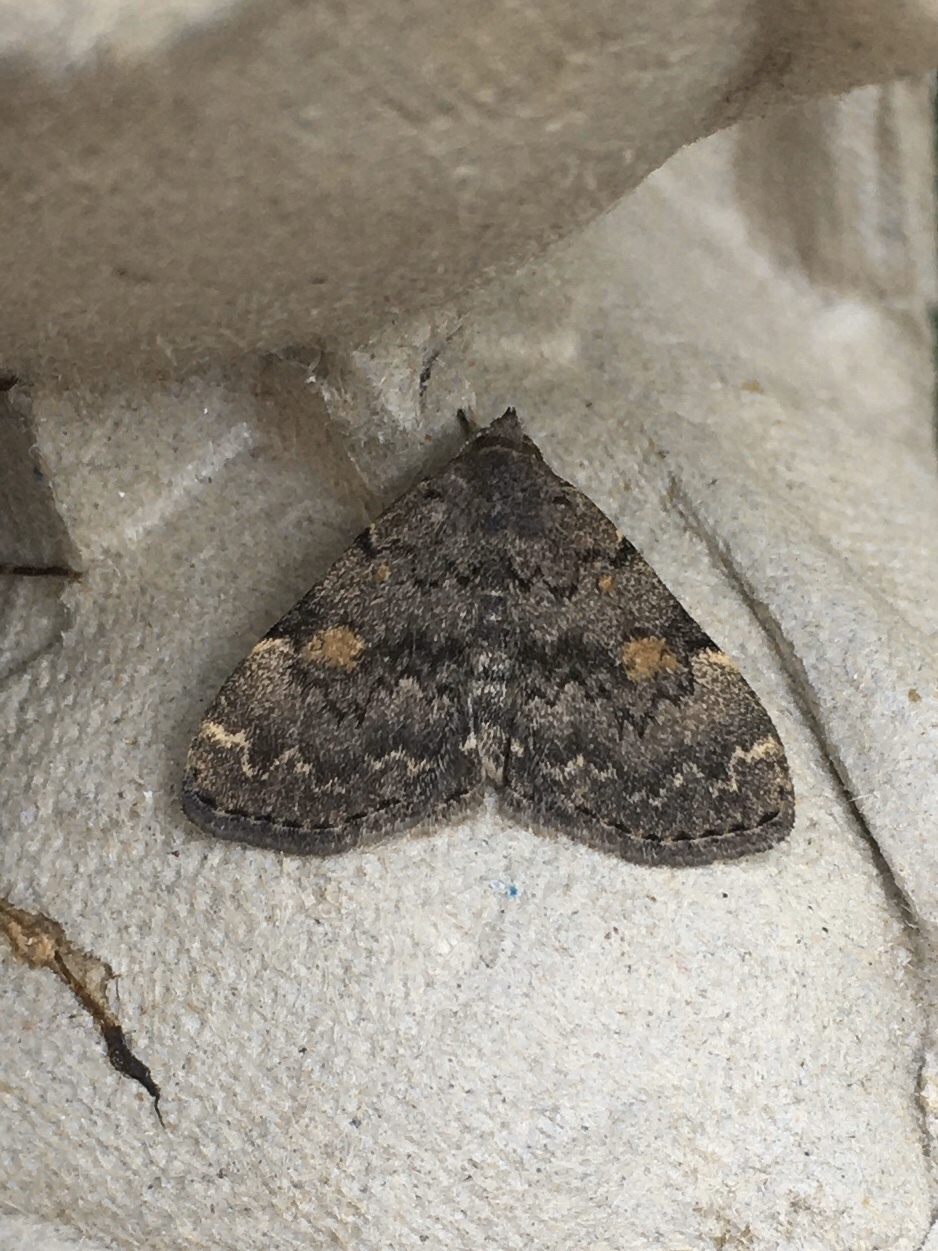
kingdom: Animalia
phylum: Arthropoda
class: Insecta
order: Lepidoptera
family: Erebidae
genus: Idia
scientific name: Idia aemula
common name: Common idia moth
